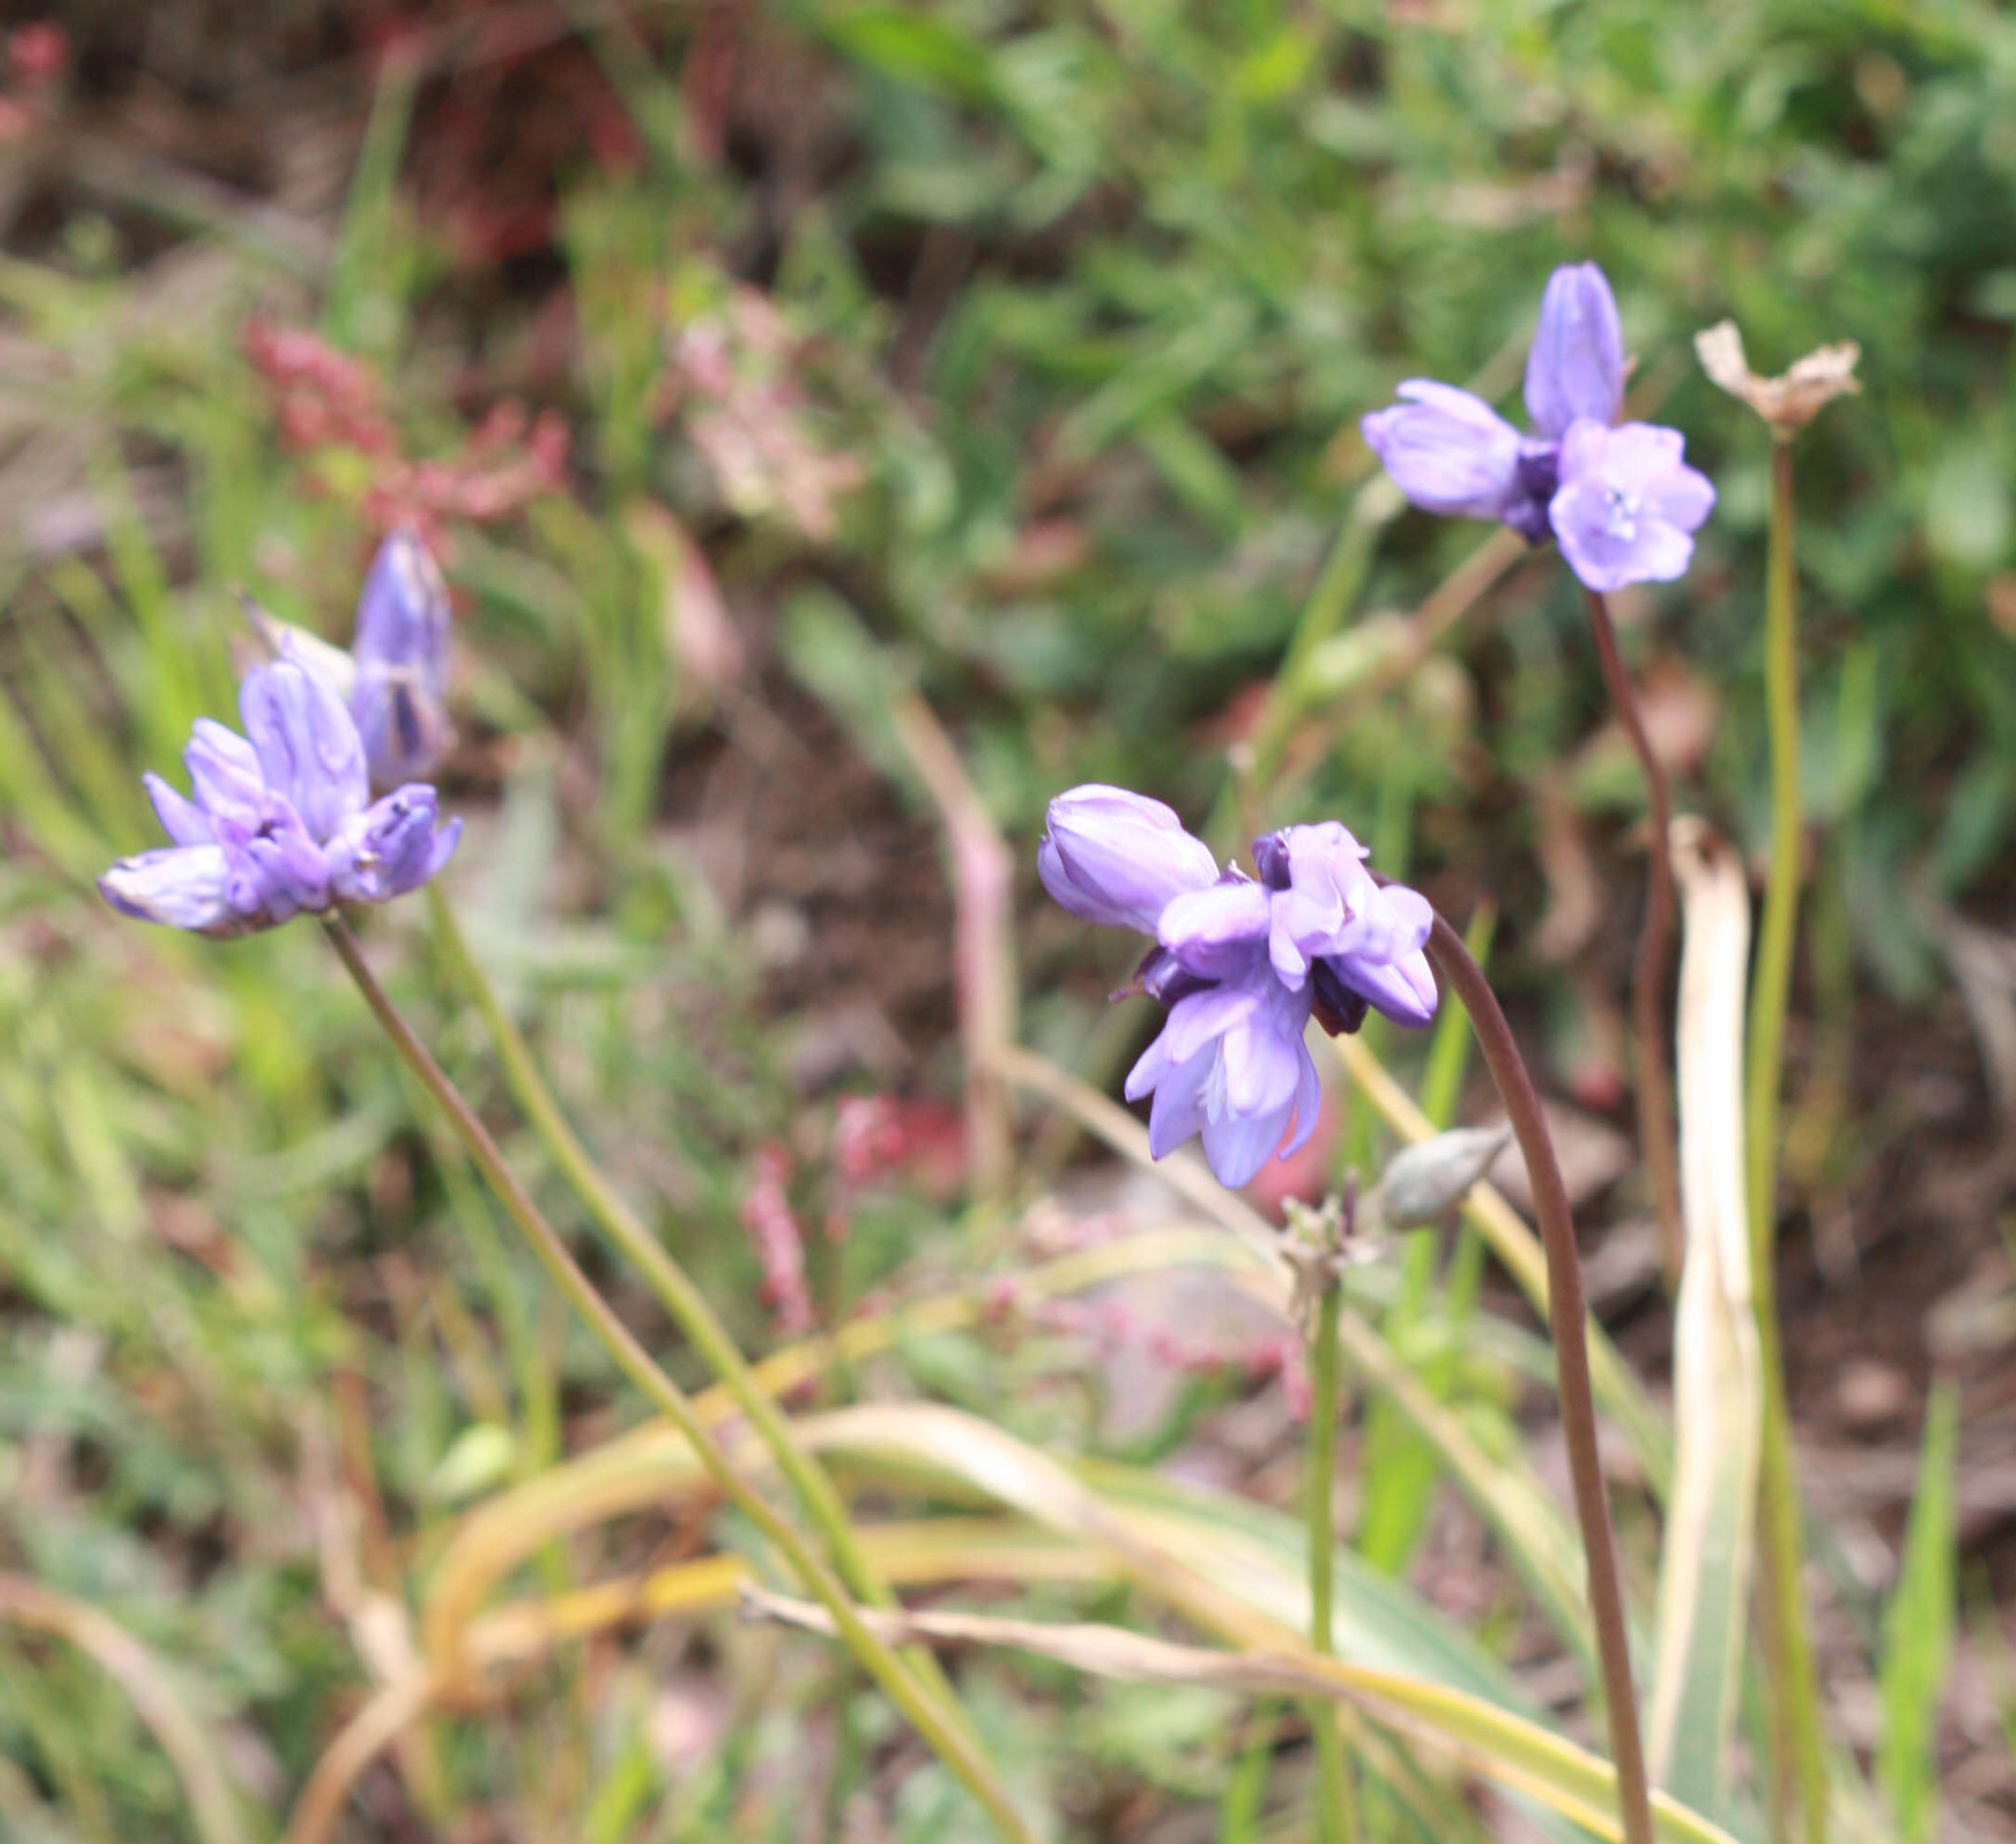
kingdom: Plantae
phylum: Tracheophyta
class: Liliopsida
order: Asparagales
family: Asparagaceae
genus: Dipterostemon
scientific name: Dipterostemon capitatus
